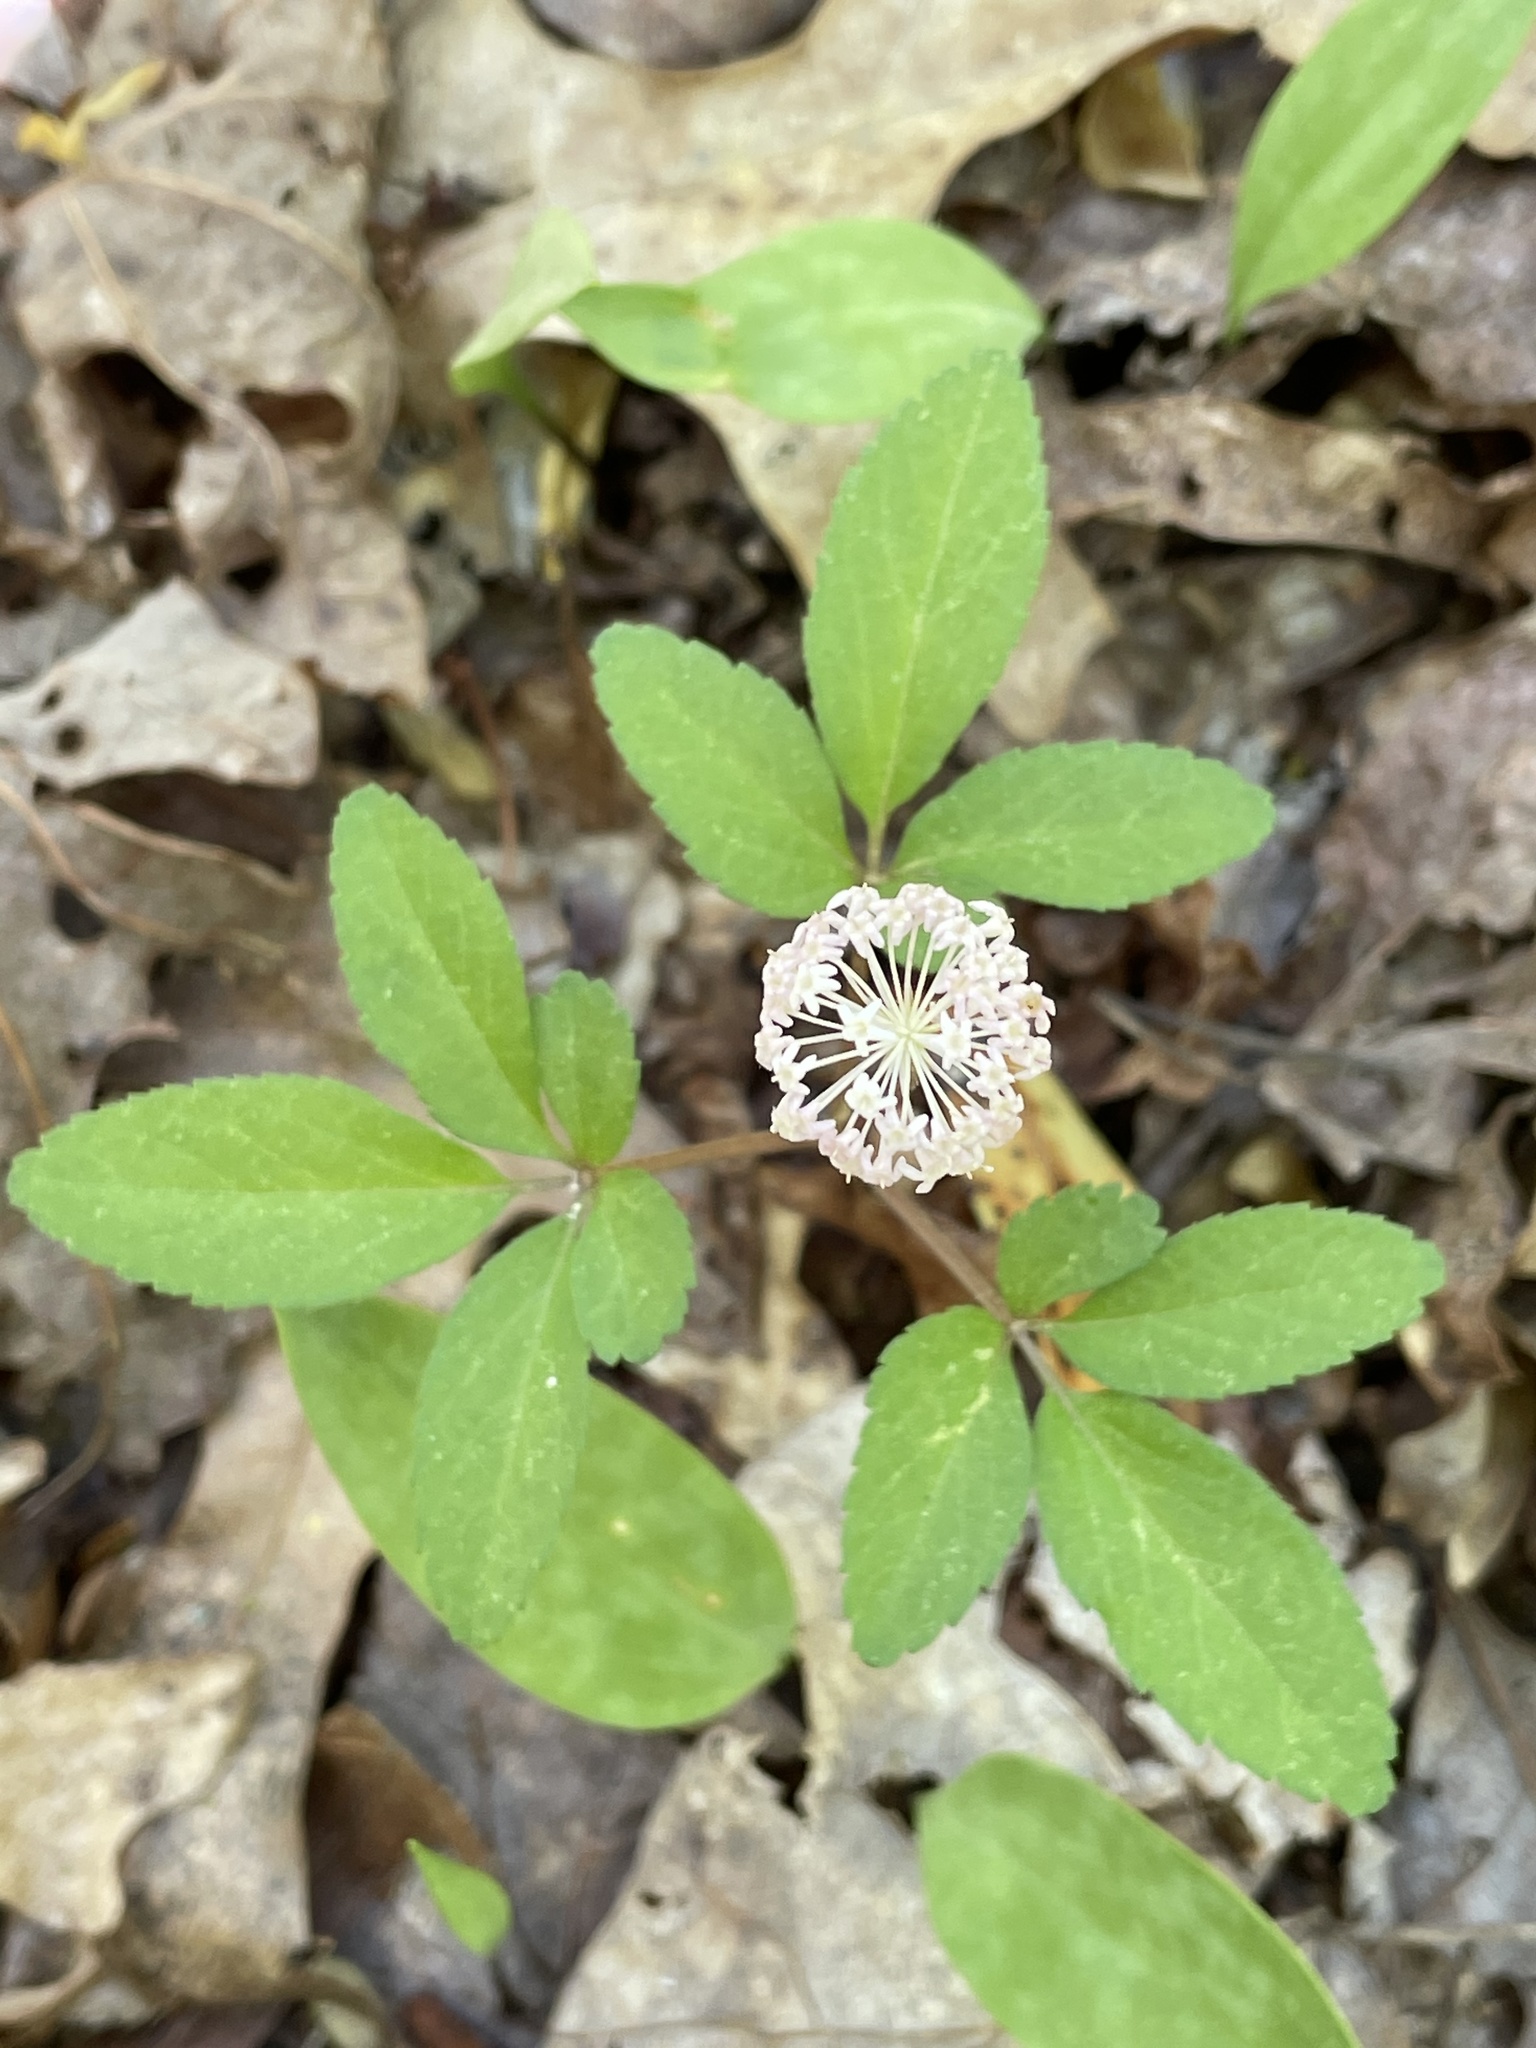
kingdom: Plantae
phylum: Tracheophyta
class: Magnoliopsida
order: Apiales
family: Araliaceae
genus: Panax
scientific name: Panax trifolius
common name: Dwarf ginseng
